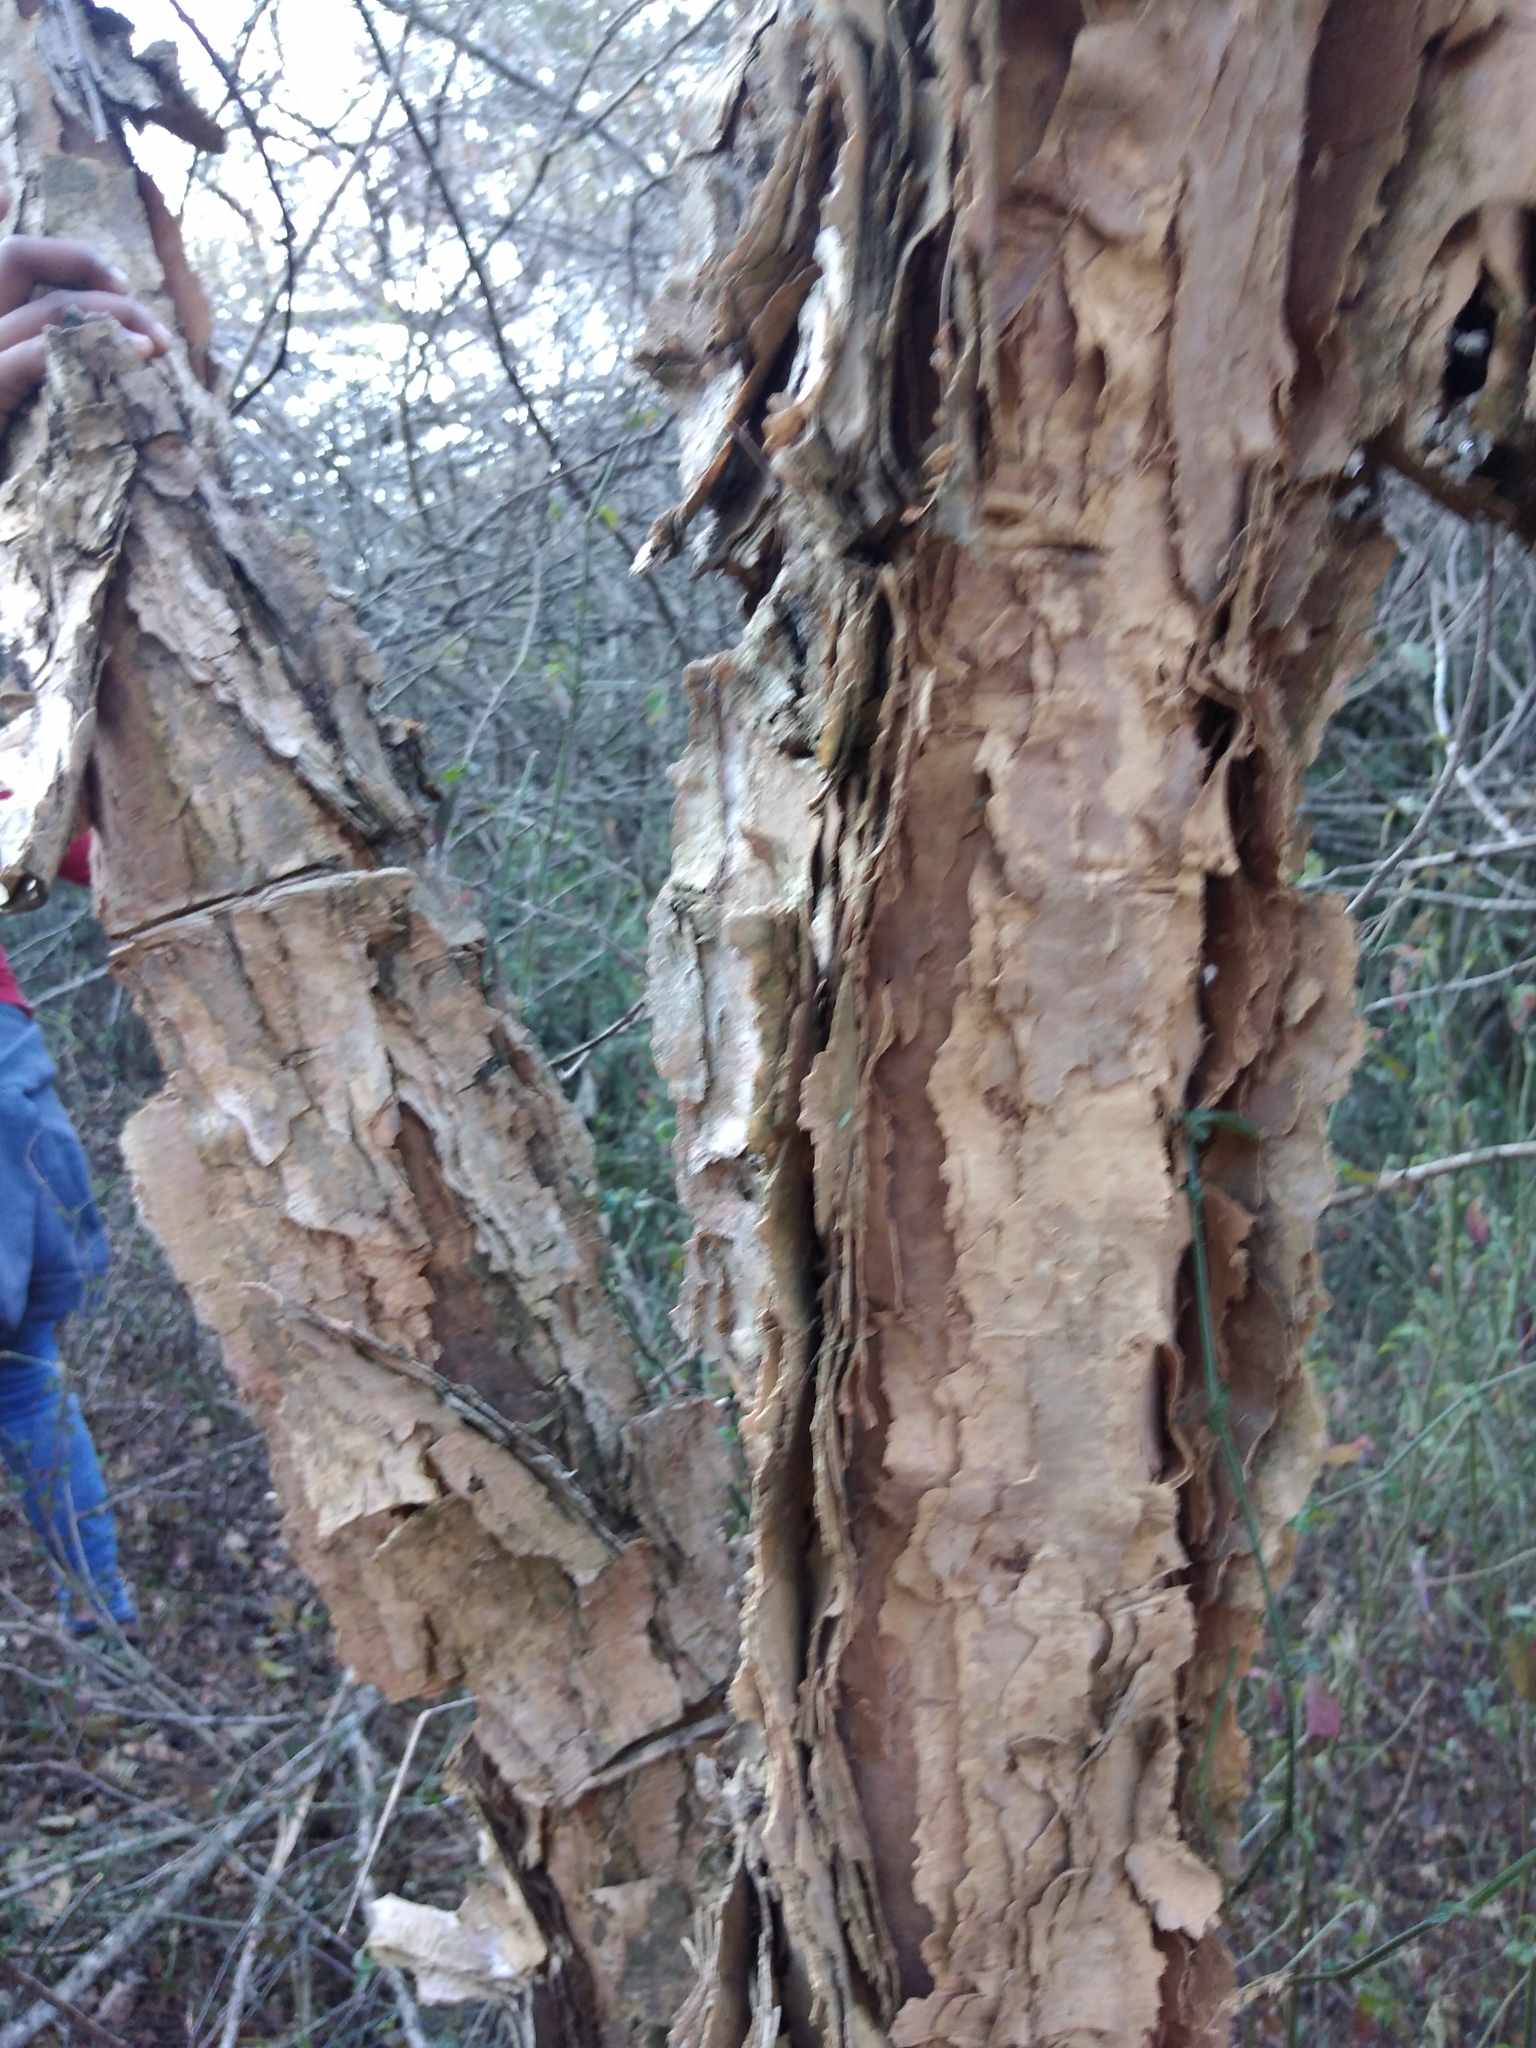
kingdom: Plantae
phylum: Tracheophyta
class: Magnoliopsida
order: Fabales
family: Fabaceae
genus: Vachellia
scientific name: Vachellia sieberiana
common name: Flat-topped thorn
